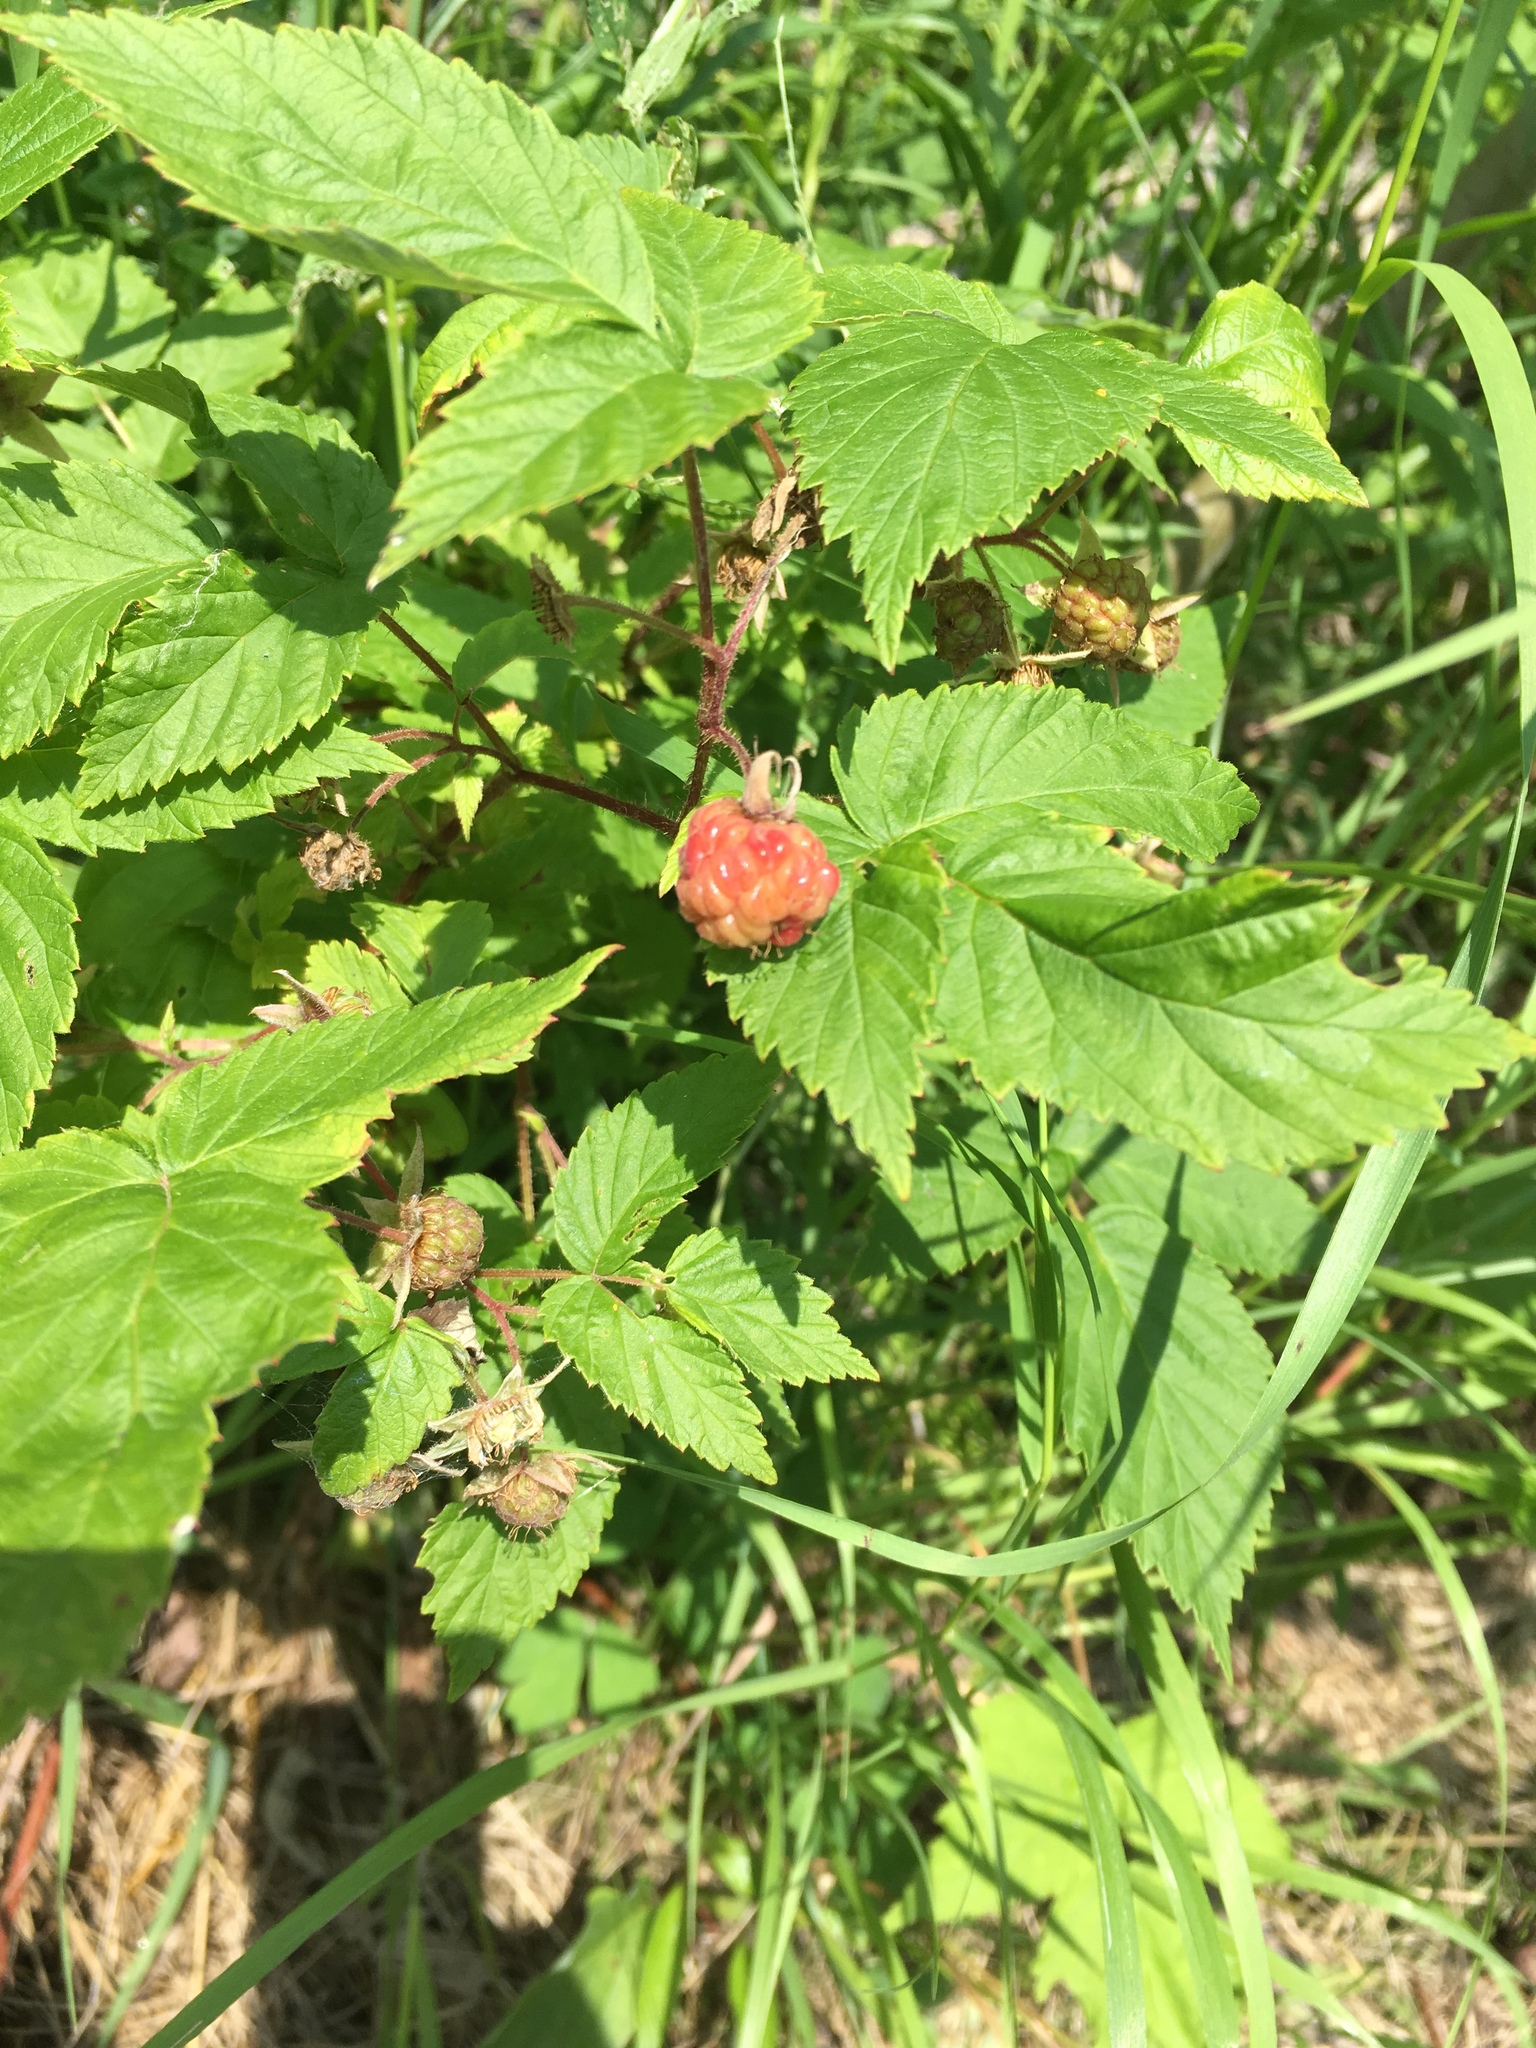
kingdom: Plantae
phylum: Tracheophyta
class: Magnoliopsida
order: Rosales
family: Rosaceae
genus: Rubus
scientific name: Rubus idaeus
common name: Raspberry
